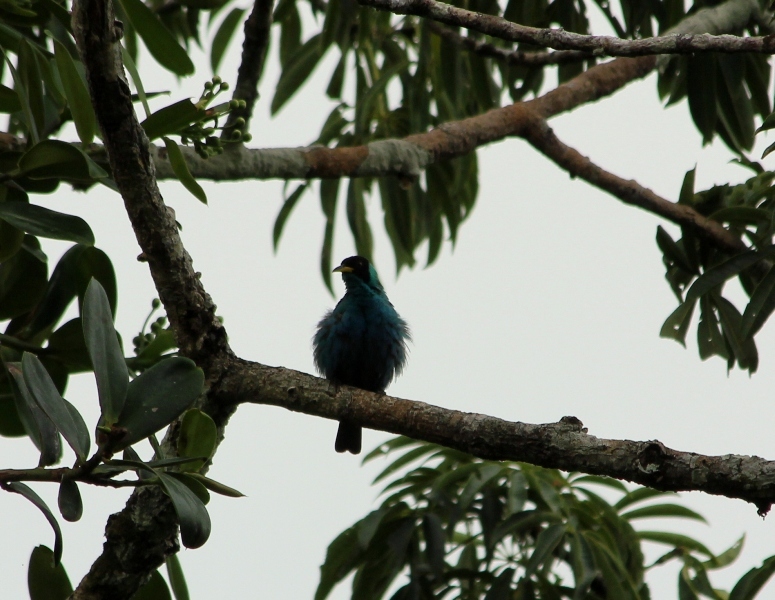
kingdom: Animalia
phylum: Chordata
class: Aves
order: Passeriformes
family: Thraupidae
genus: Chlorophanes
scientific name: Chlorophanes spiza
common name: Green honeycreeper
